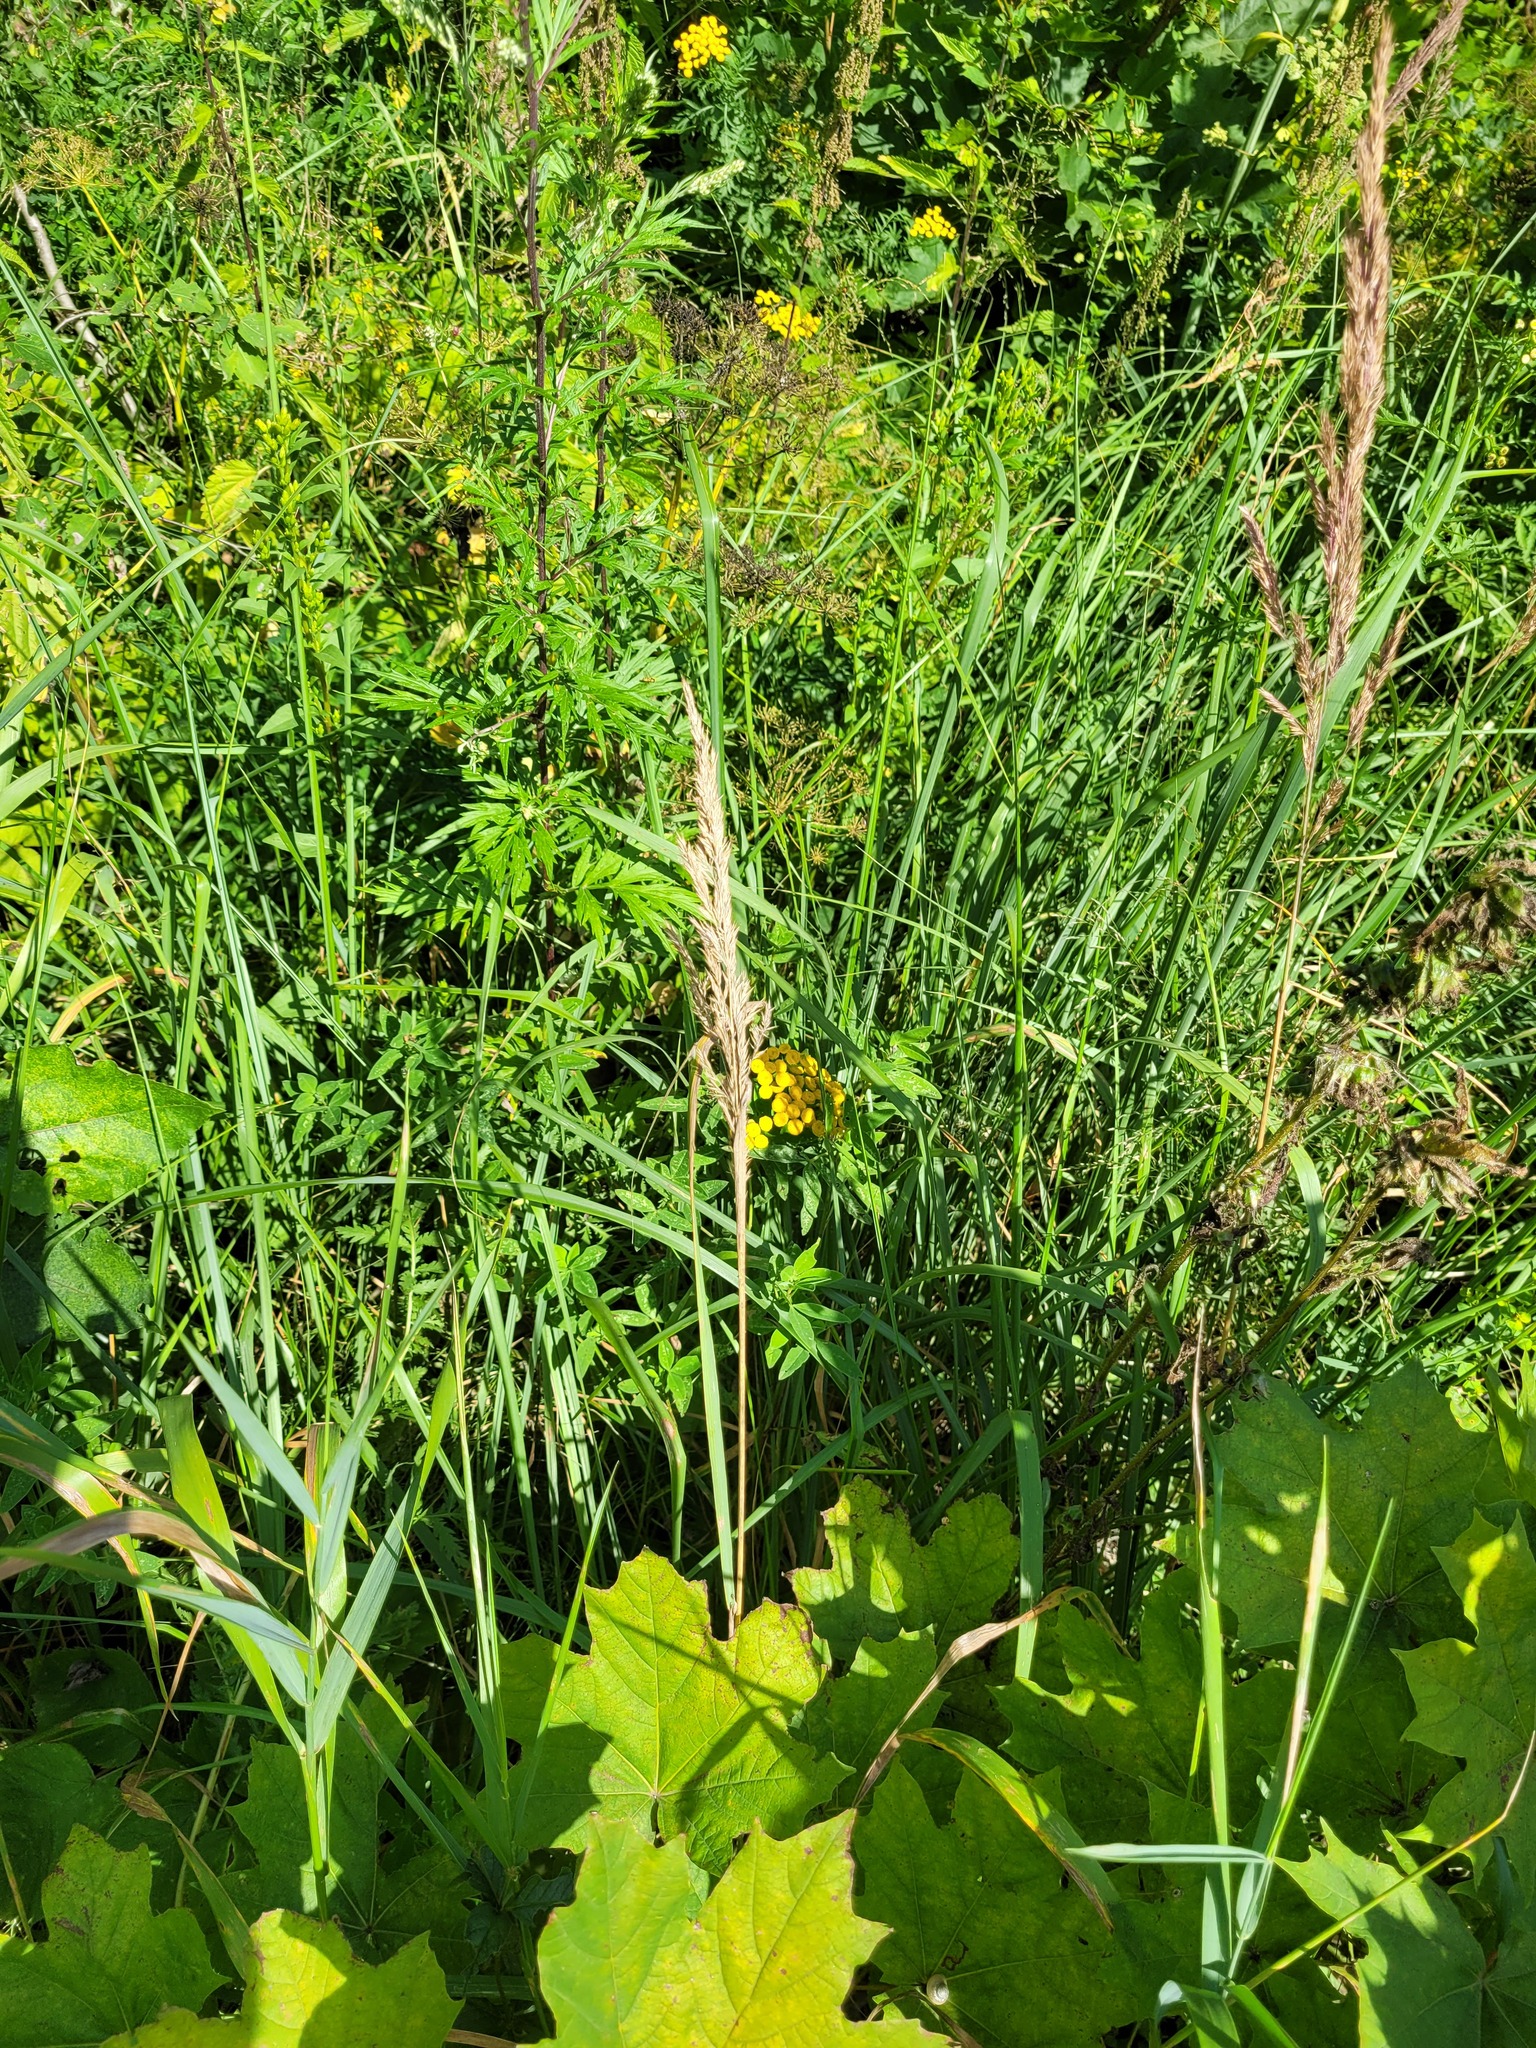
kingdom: Plantae
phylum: Tracheophyta
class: Liliopsida
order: Poales
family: Poaceae
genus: Calamagrostis
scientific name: Calamagrostis epigejos
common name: Wood small-reed
